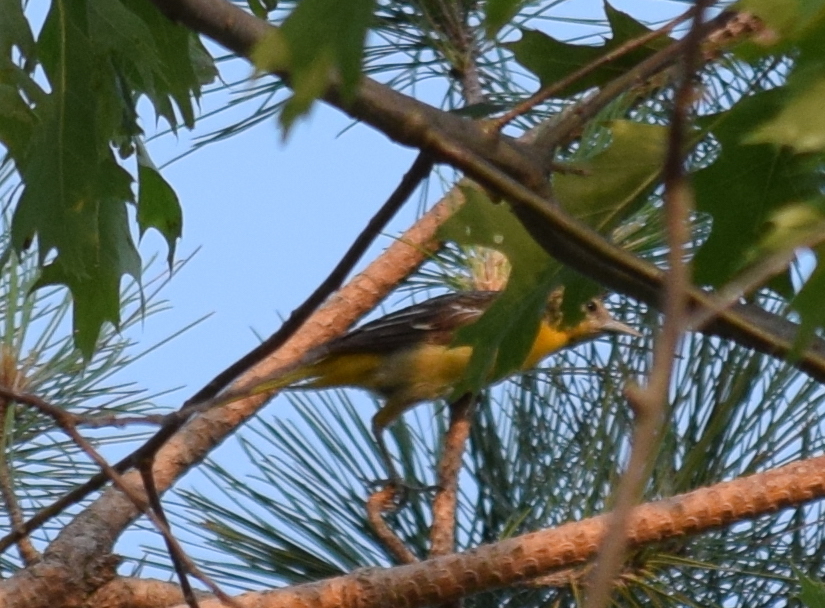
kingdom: Animalia
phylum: Chordata
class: Aves
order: Passeriformes
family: Icteridae
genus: Icterus
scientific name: Icterus galbula
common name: Baltimore oriole
